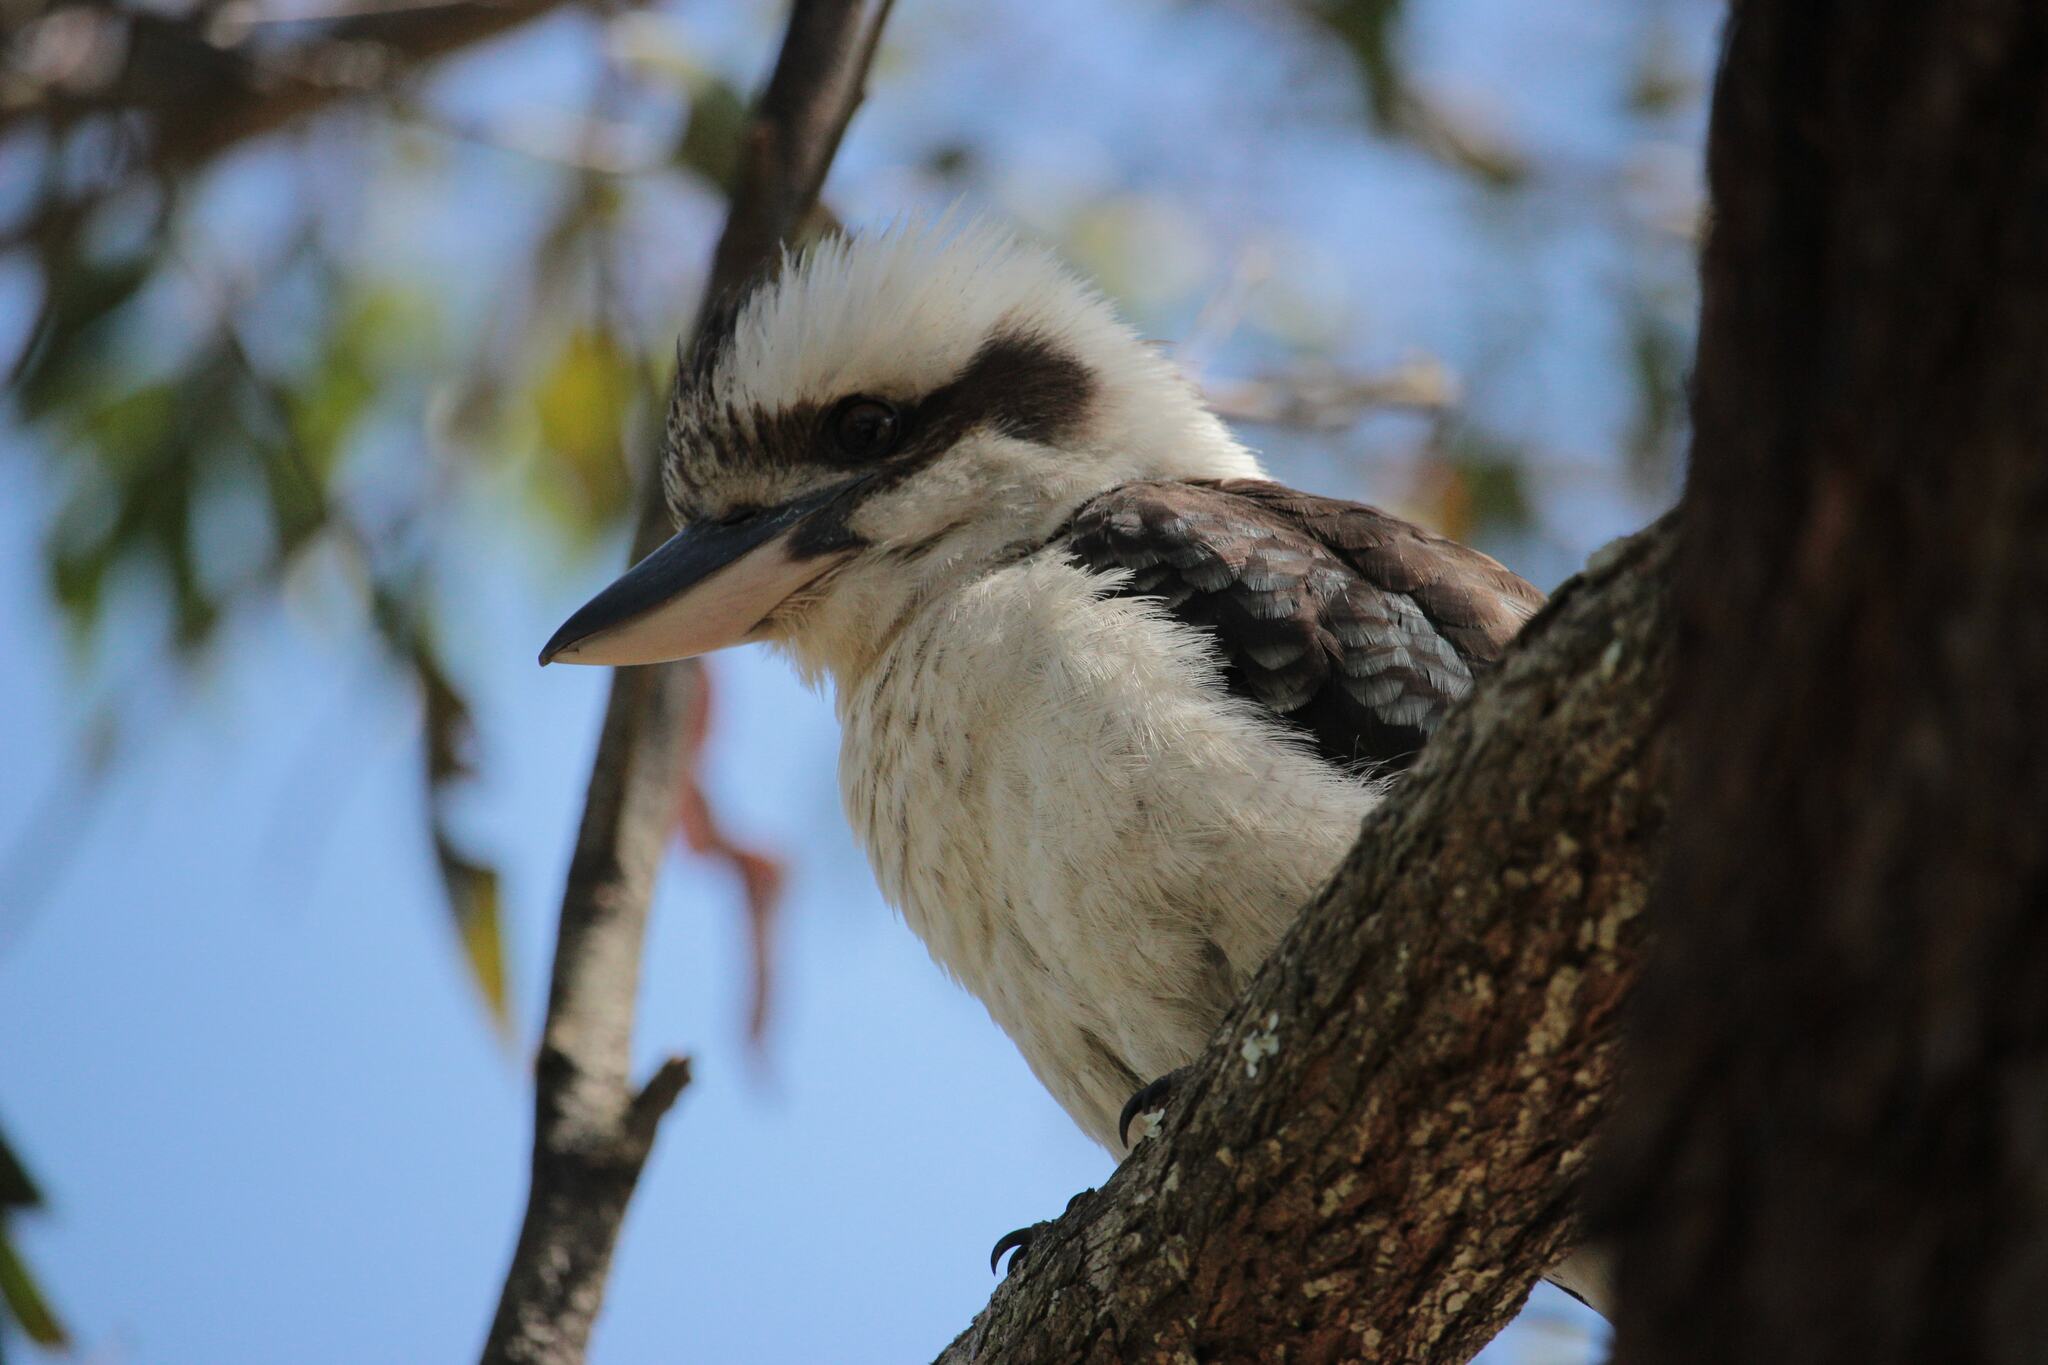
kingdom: Animalia
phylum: Chordata
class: Aves
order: Coraciiformes
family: Alcedinidae
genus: Dacelo
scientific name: Dacelo novaeguineae
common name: Laughing kookaburra
